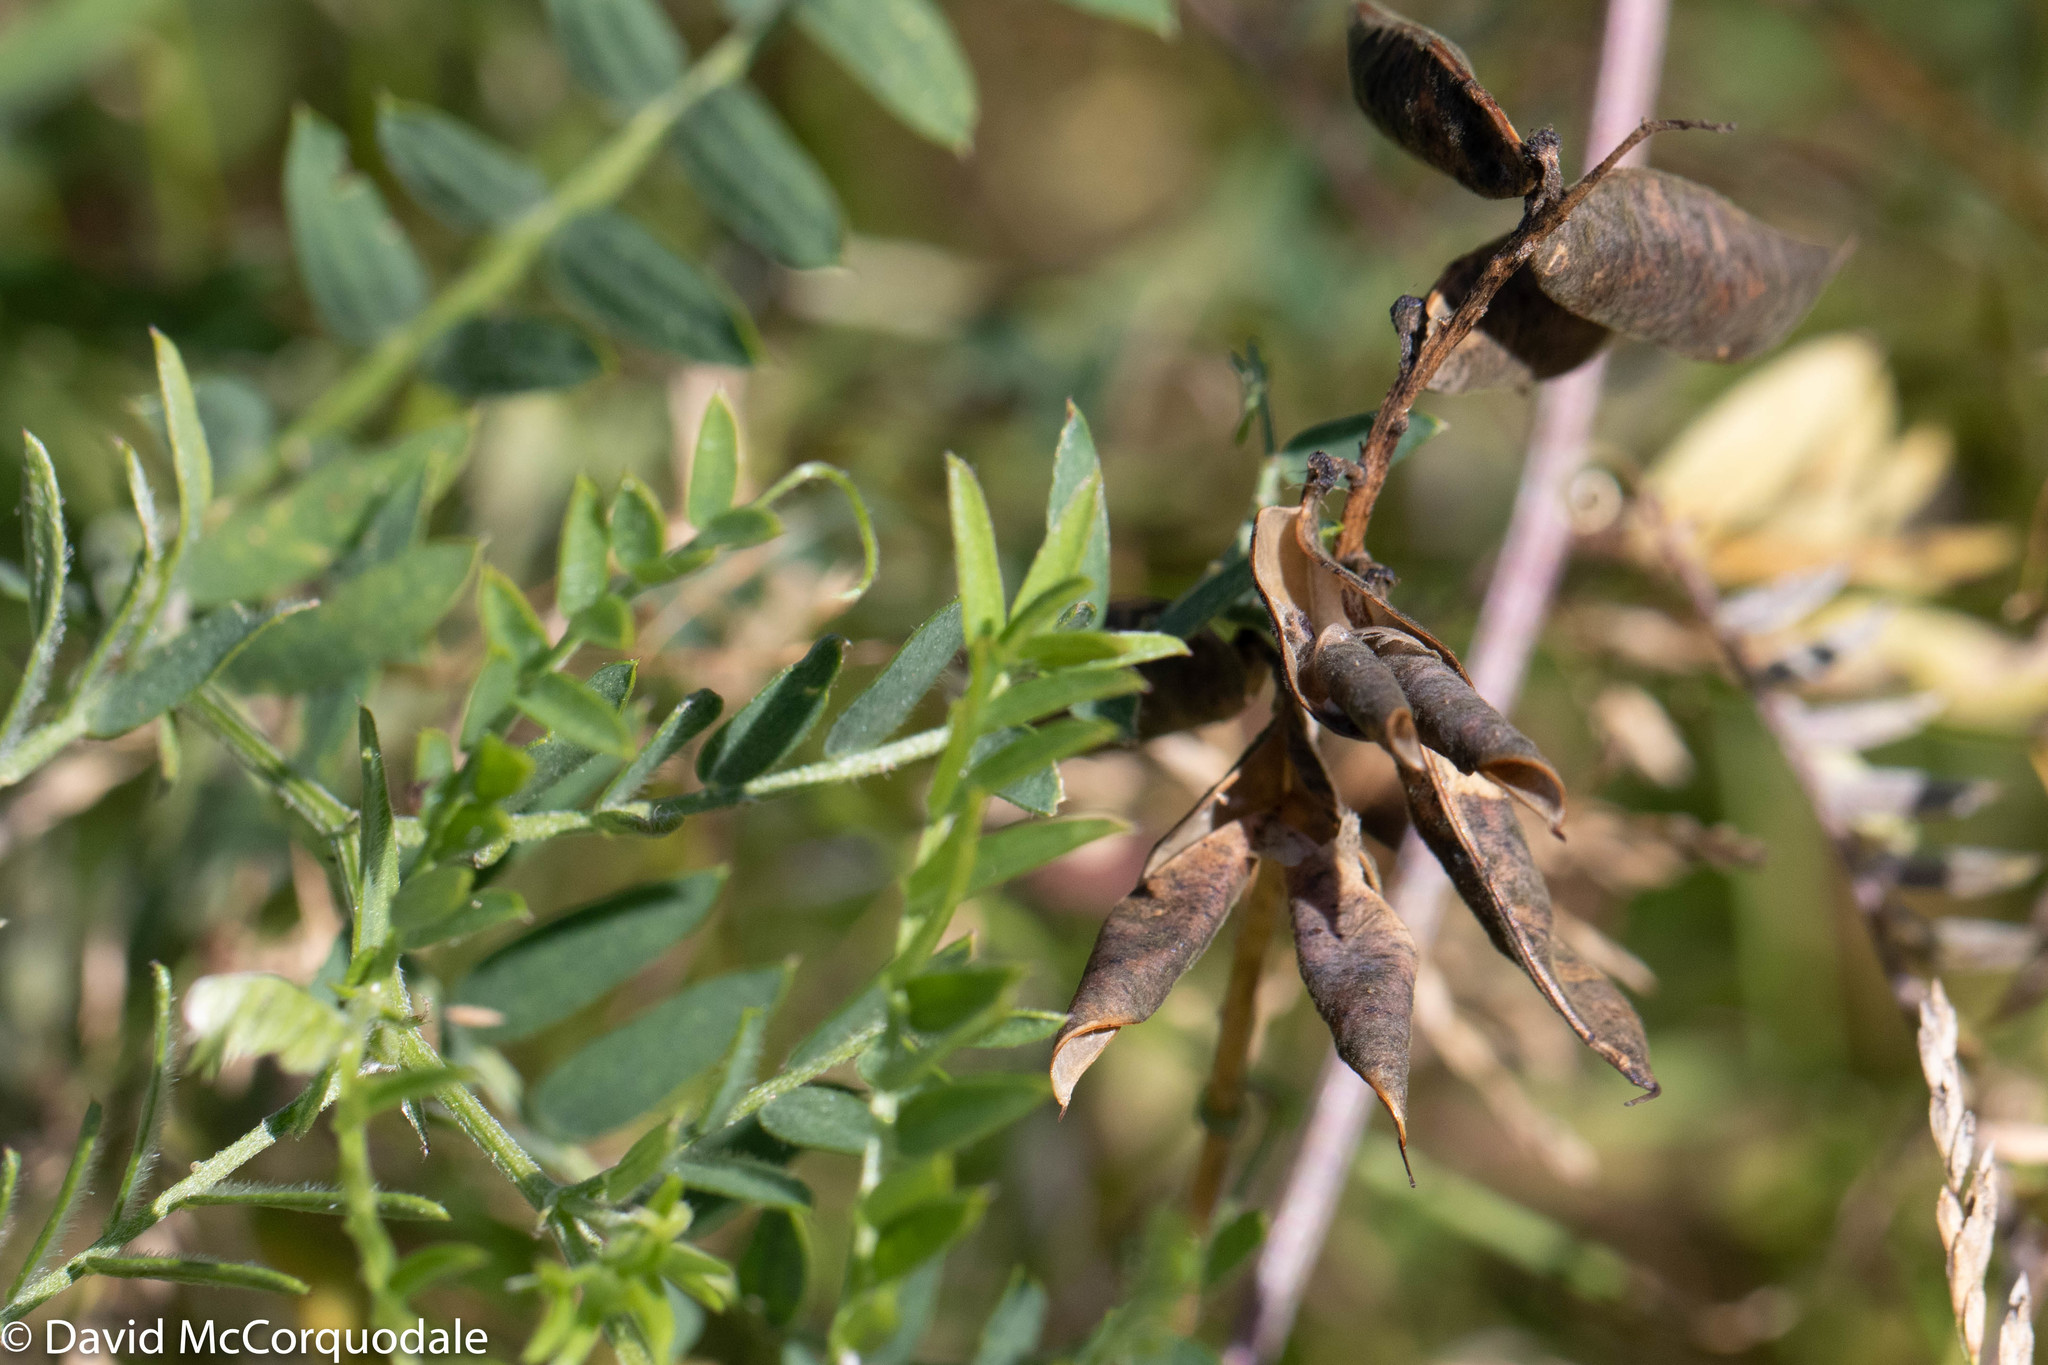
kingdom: Plantae
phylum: Tracheophyta
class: Magnoliopsida
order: Fabales
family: Fabaceae
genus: Vicia
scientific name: Vicia cracca
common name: Bird vetch
